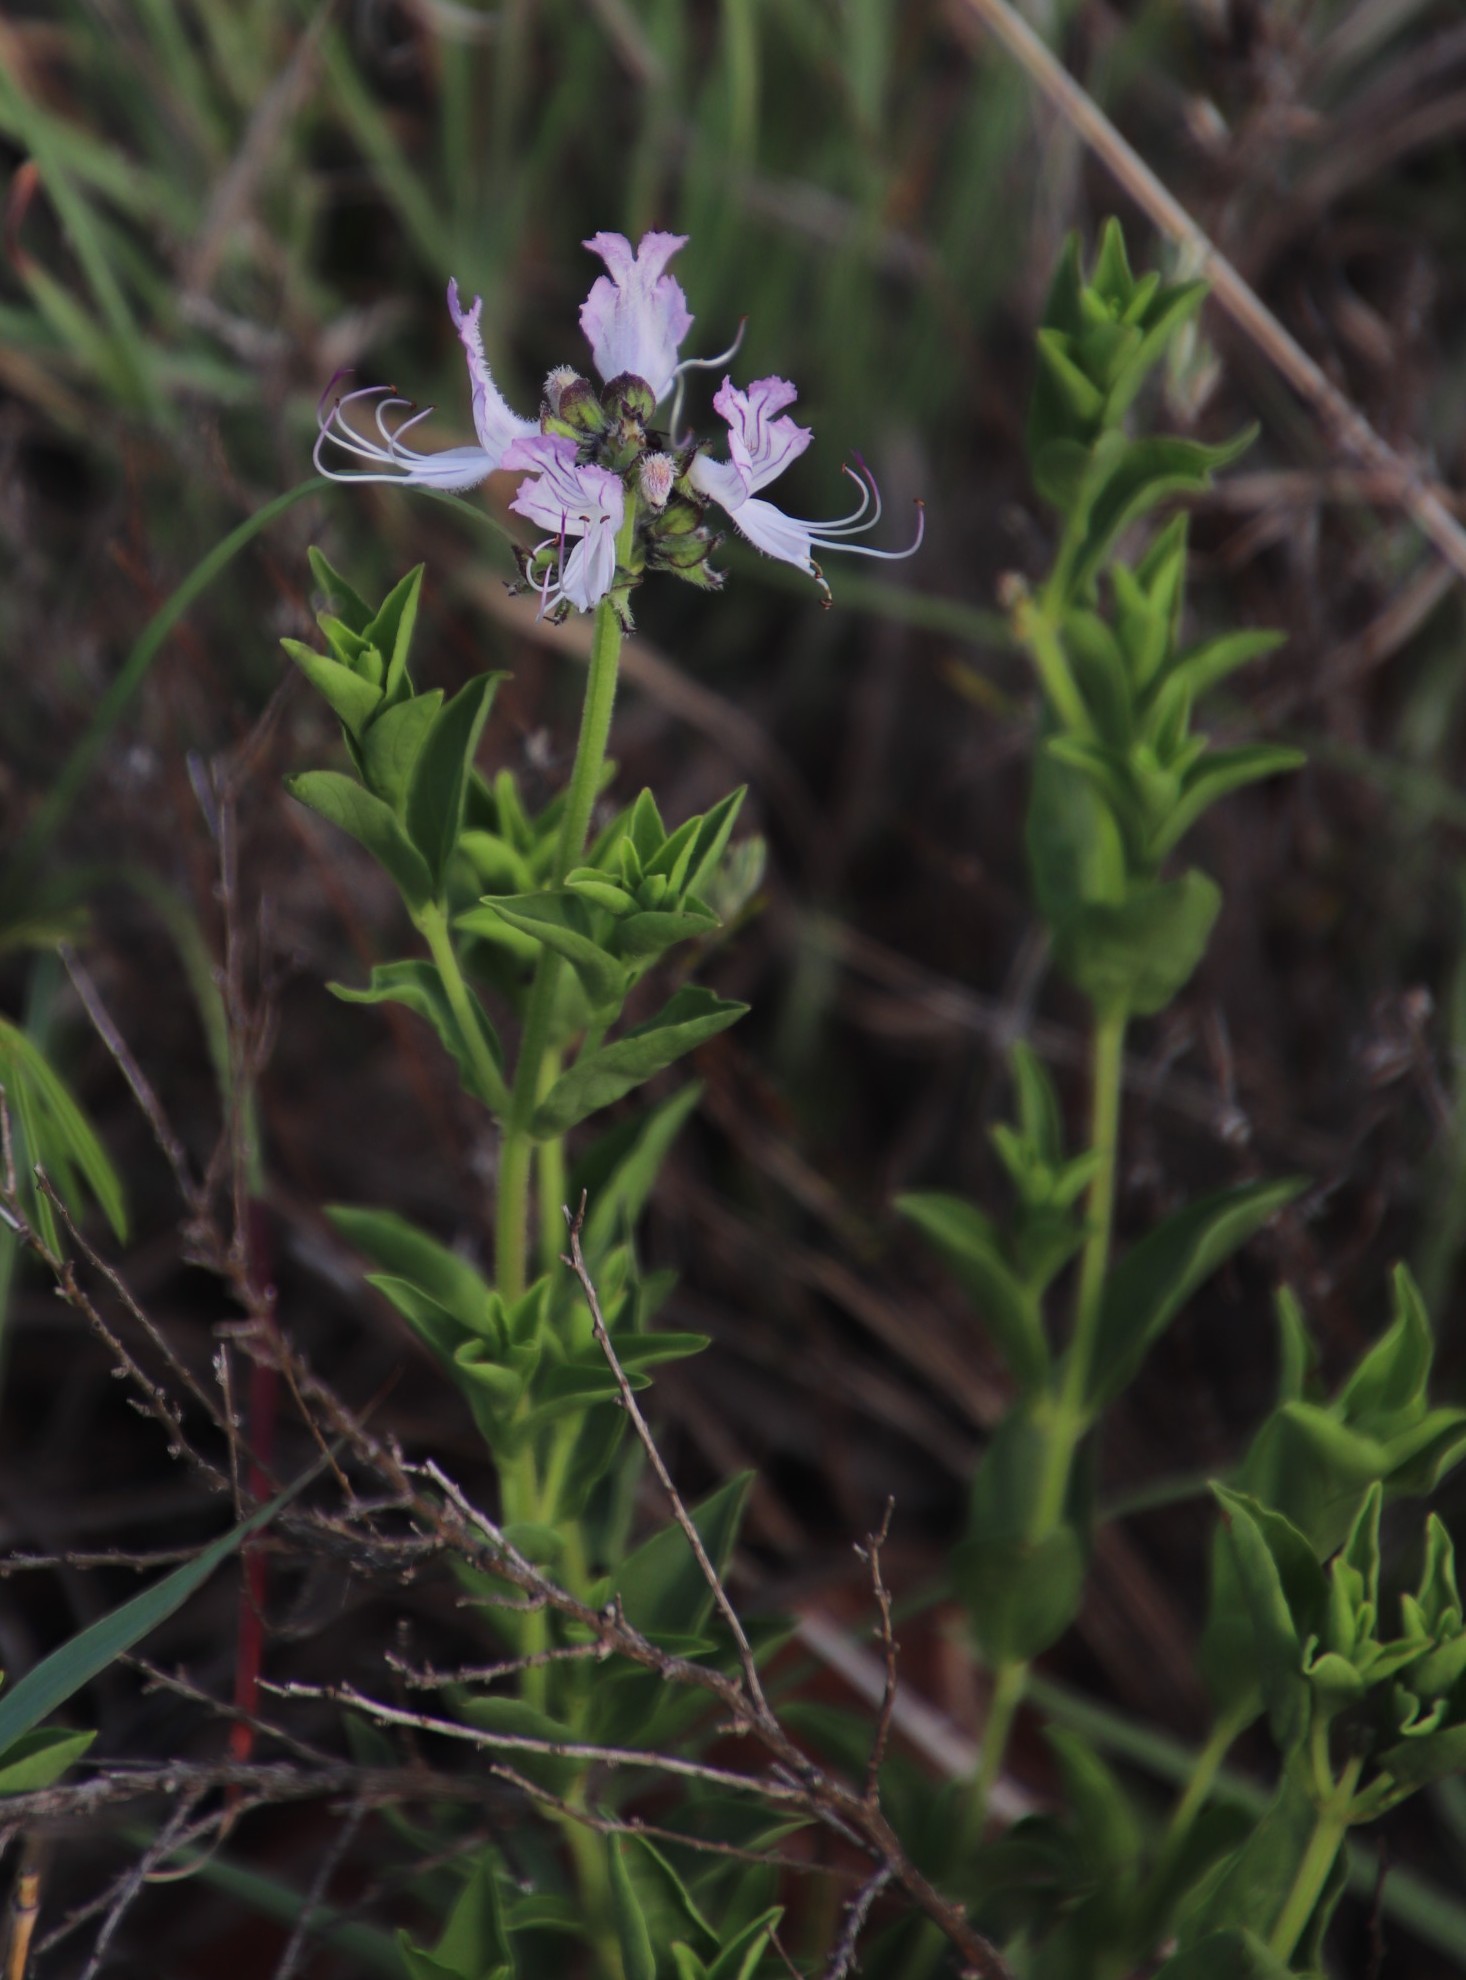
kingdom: Plantae
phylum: Tracheophyta
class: Magnoliopsida
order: Lamiales
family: Lamiaceae
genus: Ocimum
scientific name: Ocimum obovatum
